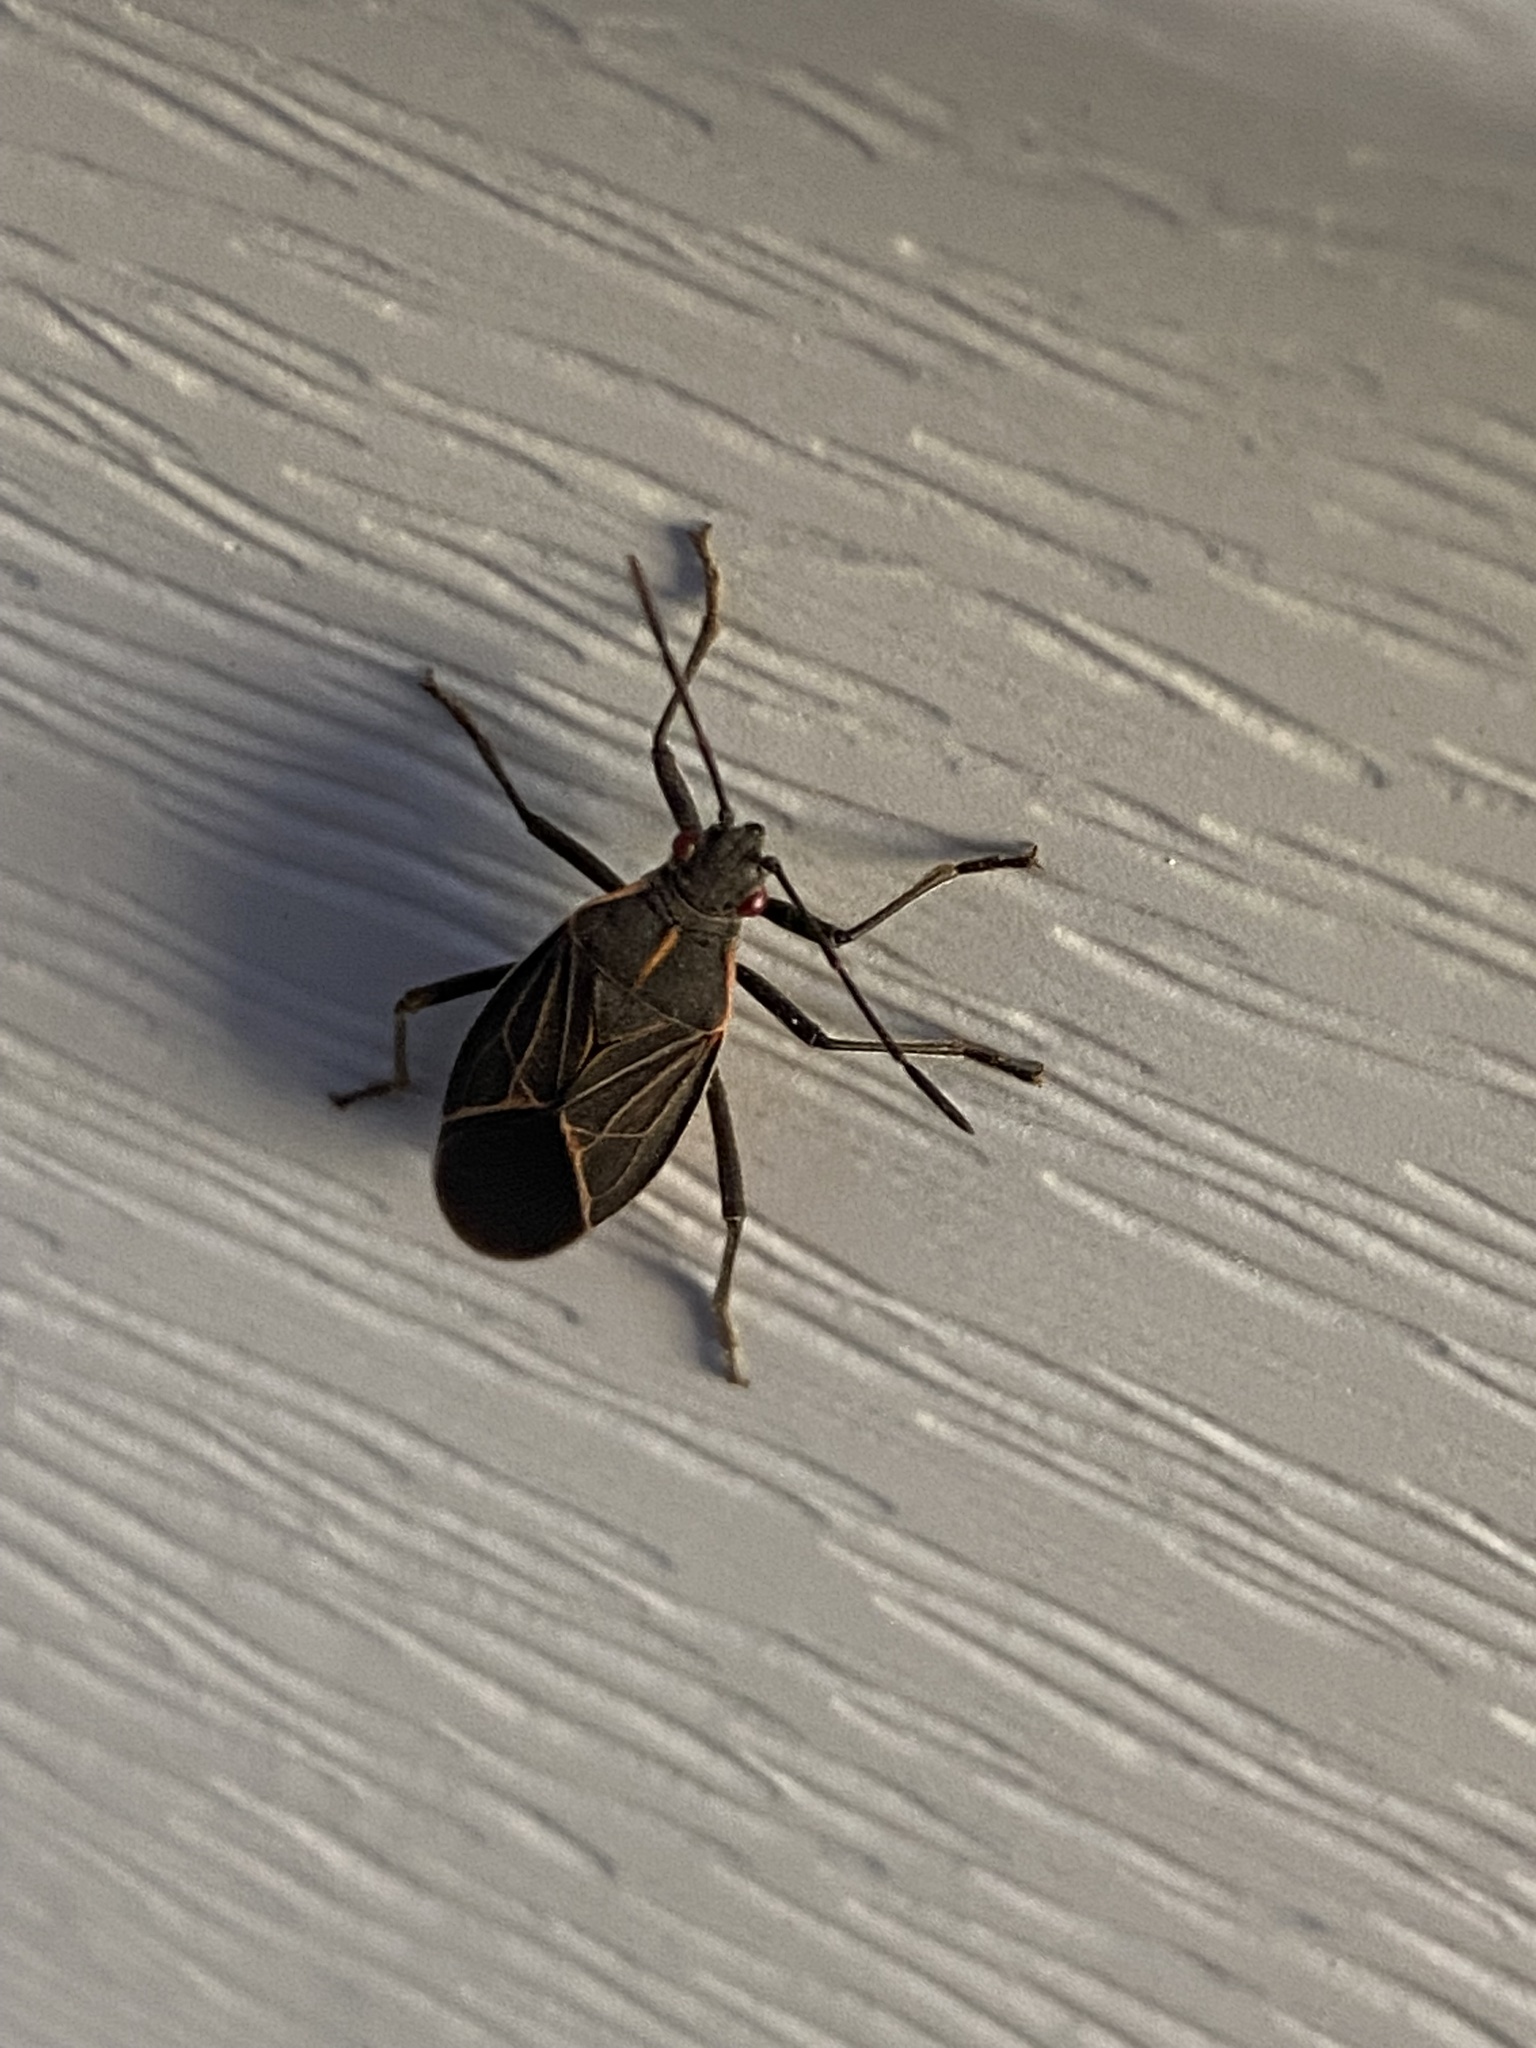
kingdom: Animalia
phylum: Arthropoda
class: Insecta
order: Hemiptera
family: Rhopalidae
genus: Boisea
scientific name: Boisea rubrolineata
